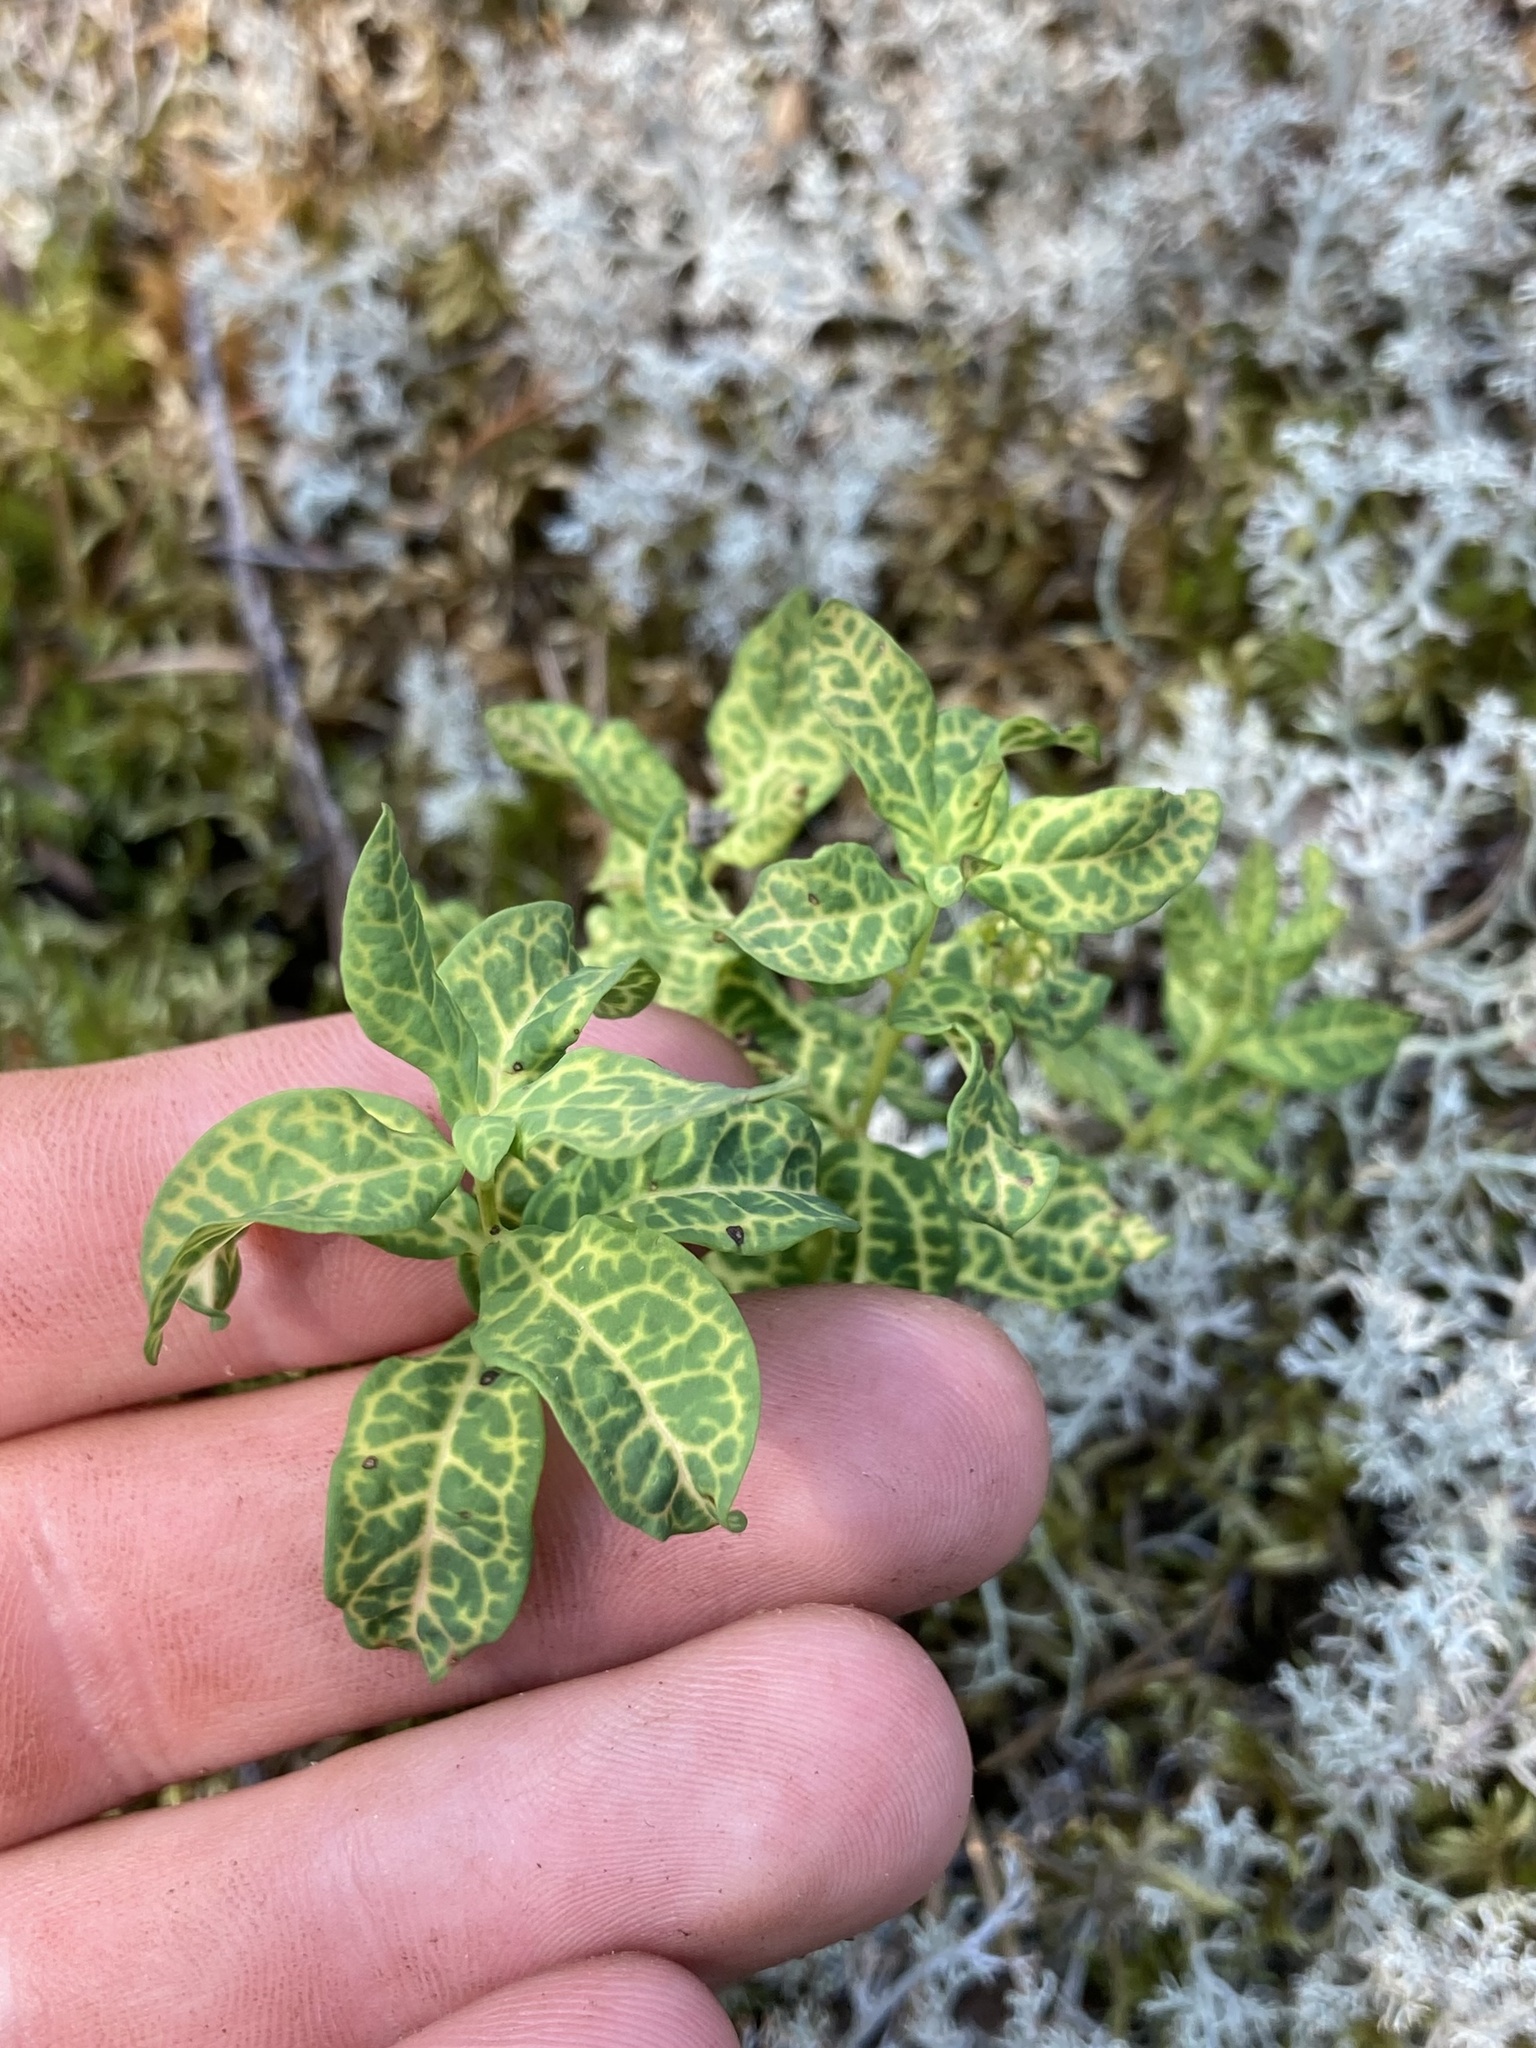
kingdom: Plantae
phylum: Tracheophyta
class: Magnoliopsida
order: Santalales
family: Comandraceae
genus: Geocaulon
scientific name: Geocaulon lividum
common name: Earthberry
